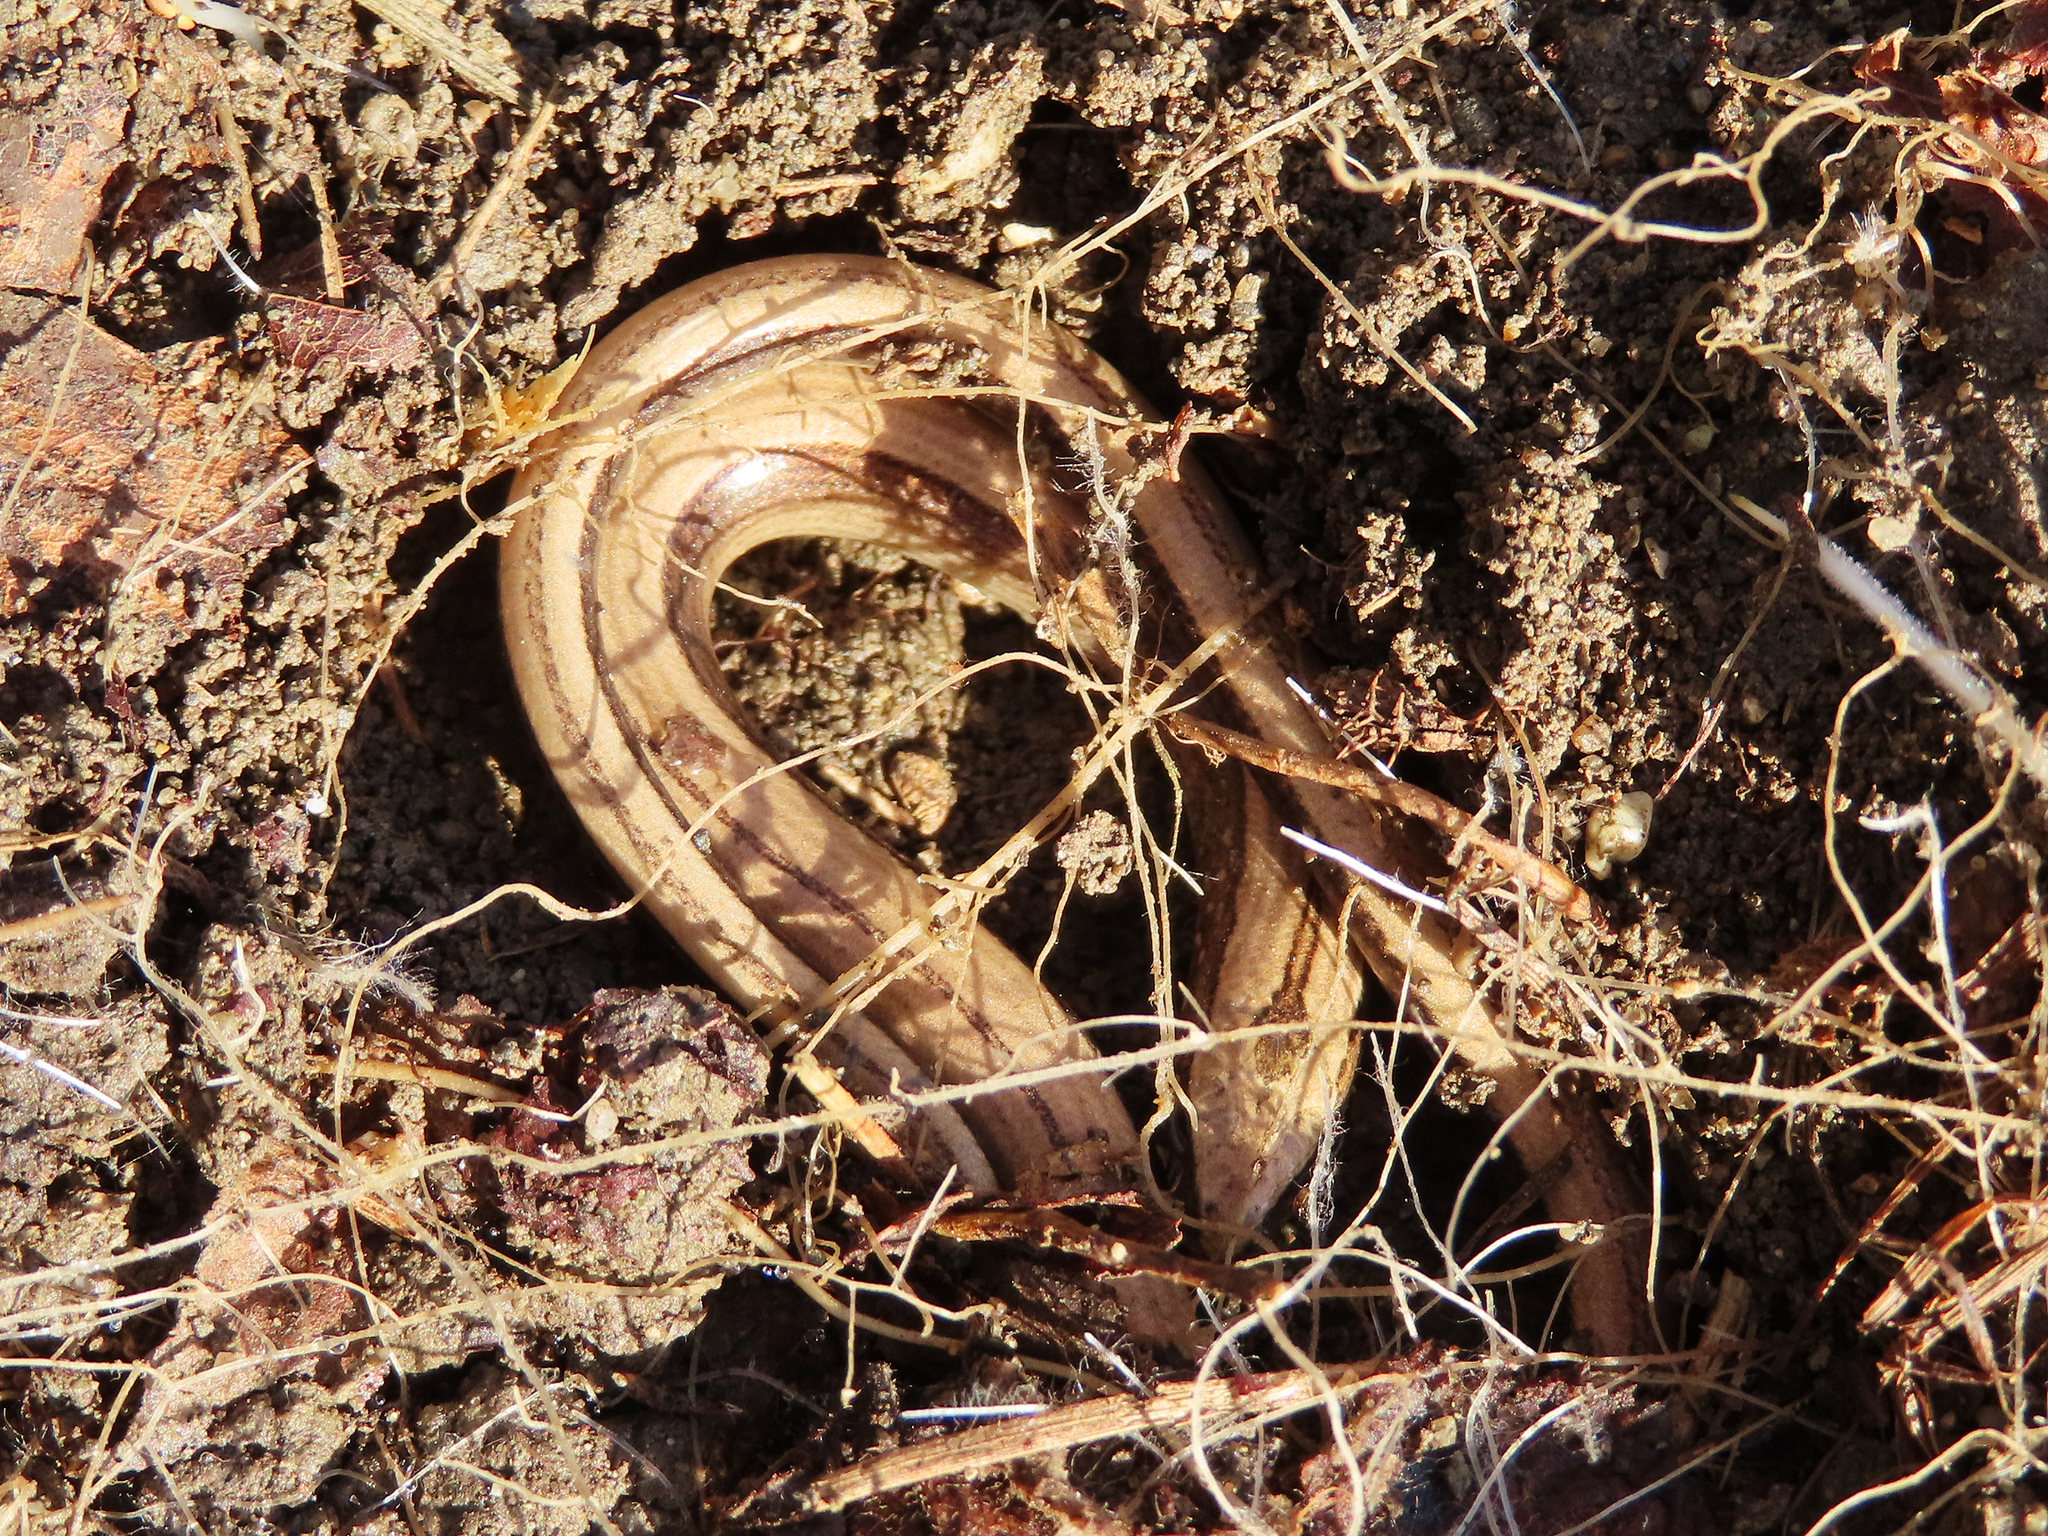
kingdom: Animalia
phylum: Chordata
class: Squamata
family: Anguidae
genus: Anguis
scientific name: Anguis colchica
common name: Slow worm
